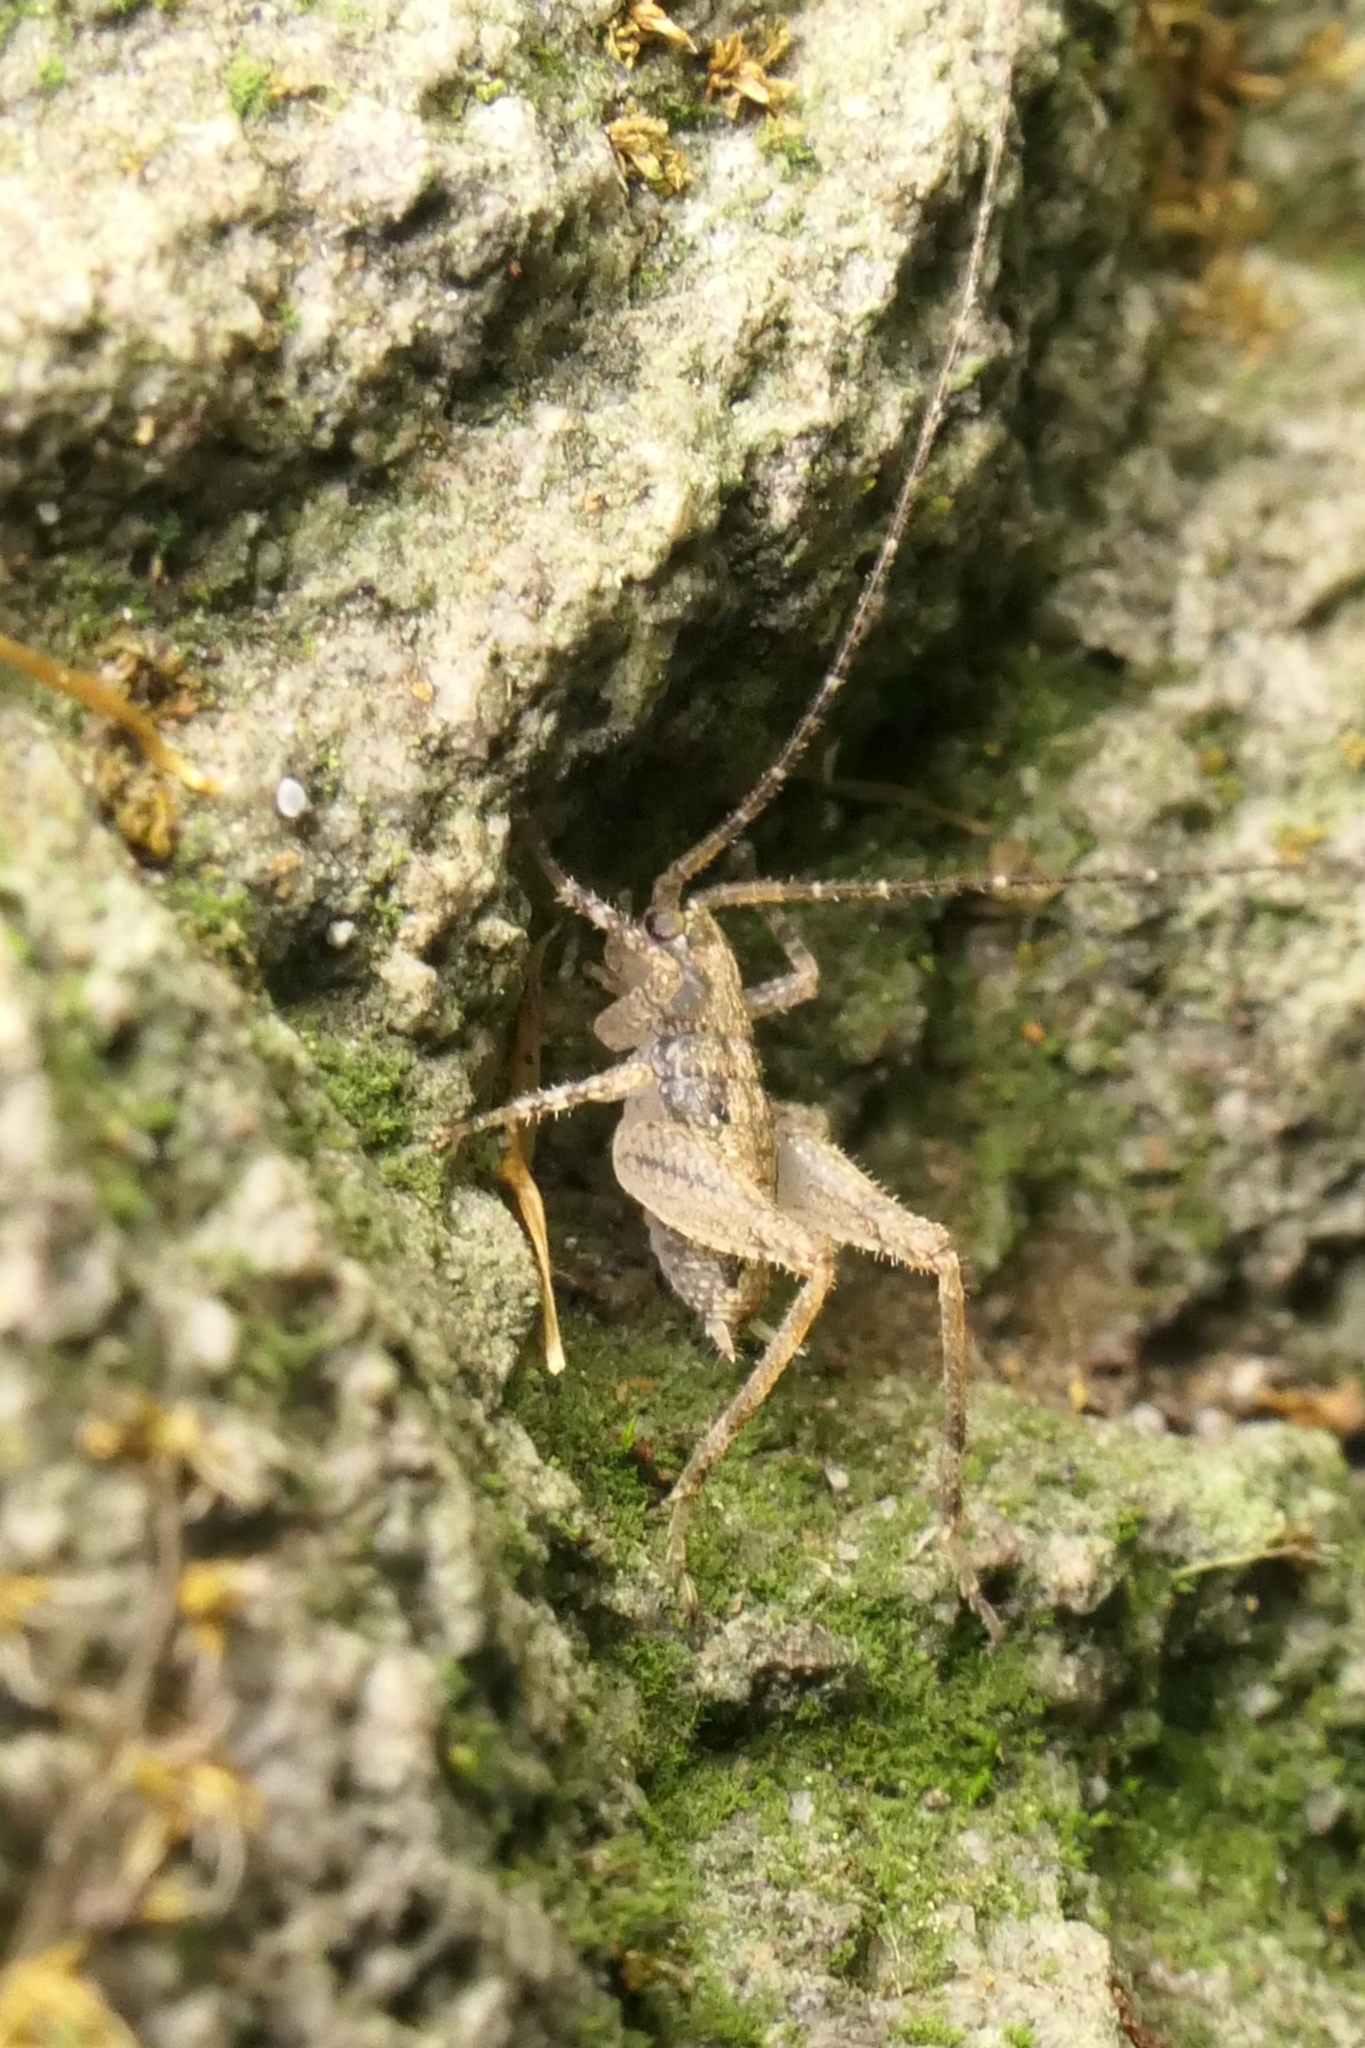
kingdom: Animalia
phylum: Arthropoda
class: Insecta
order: Orthoptera
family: Rhaphidophoridae
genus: Isoplectron
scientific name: Isoplectron armatum
